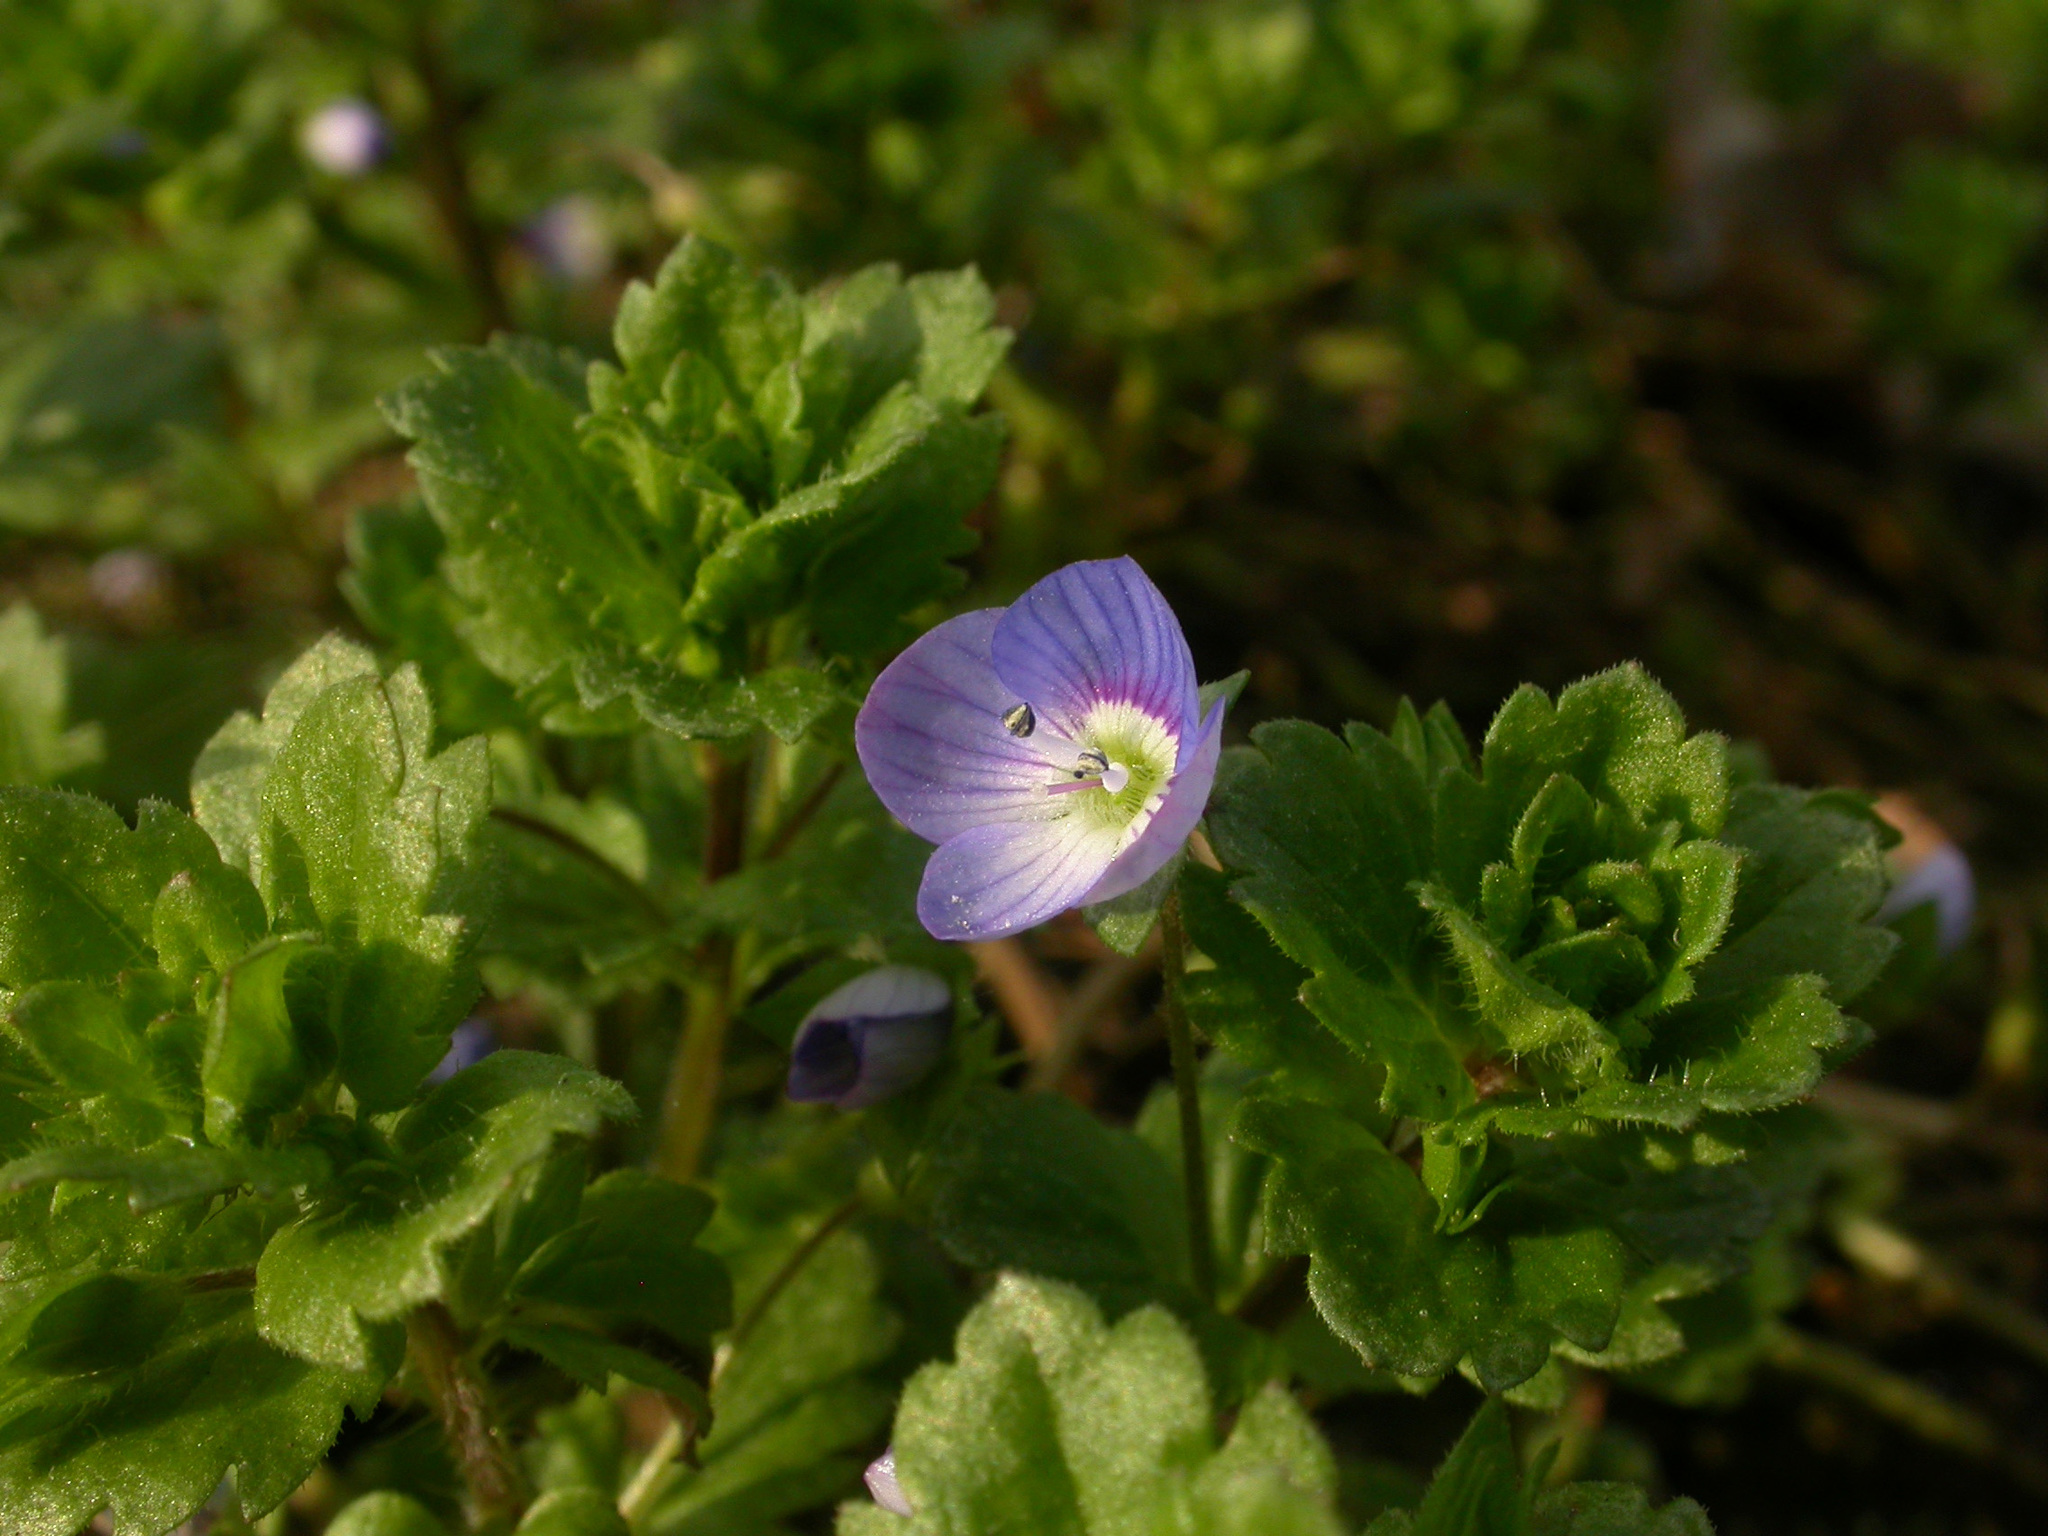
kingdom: Plantae
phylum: Tracheophyta
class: Magnoliopsida
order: Lamiales
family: Plantaginaceae
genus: Veronica
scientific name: Veronica persica
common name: Common field-speedwell
